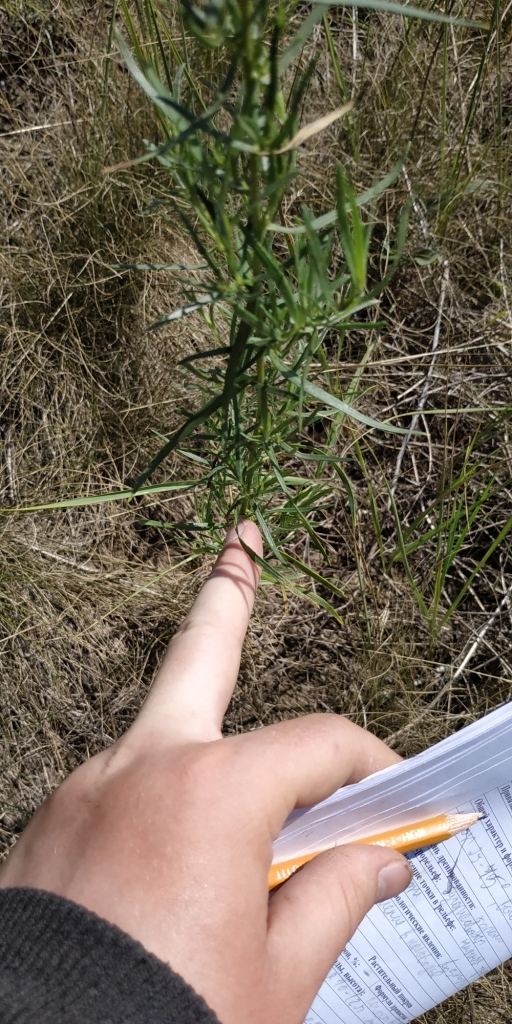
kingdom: Plantae
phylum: Tracheophyta
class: Magnoliopsida
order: Asterales
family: Asteraceae
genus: Artemisia
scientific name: Artemisia dracunculus
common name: Tarragon
